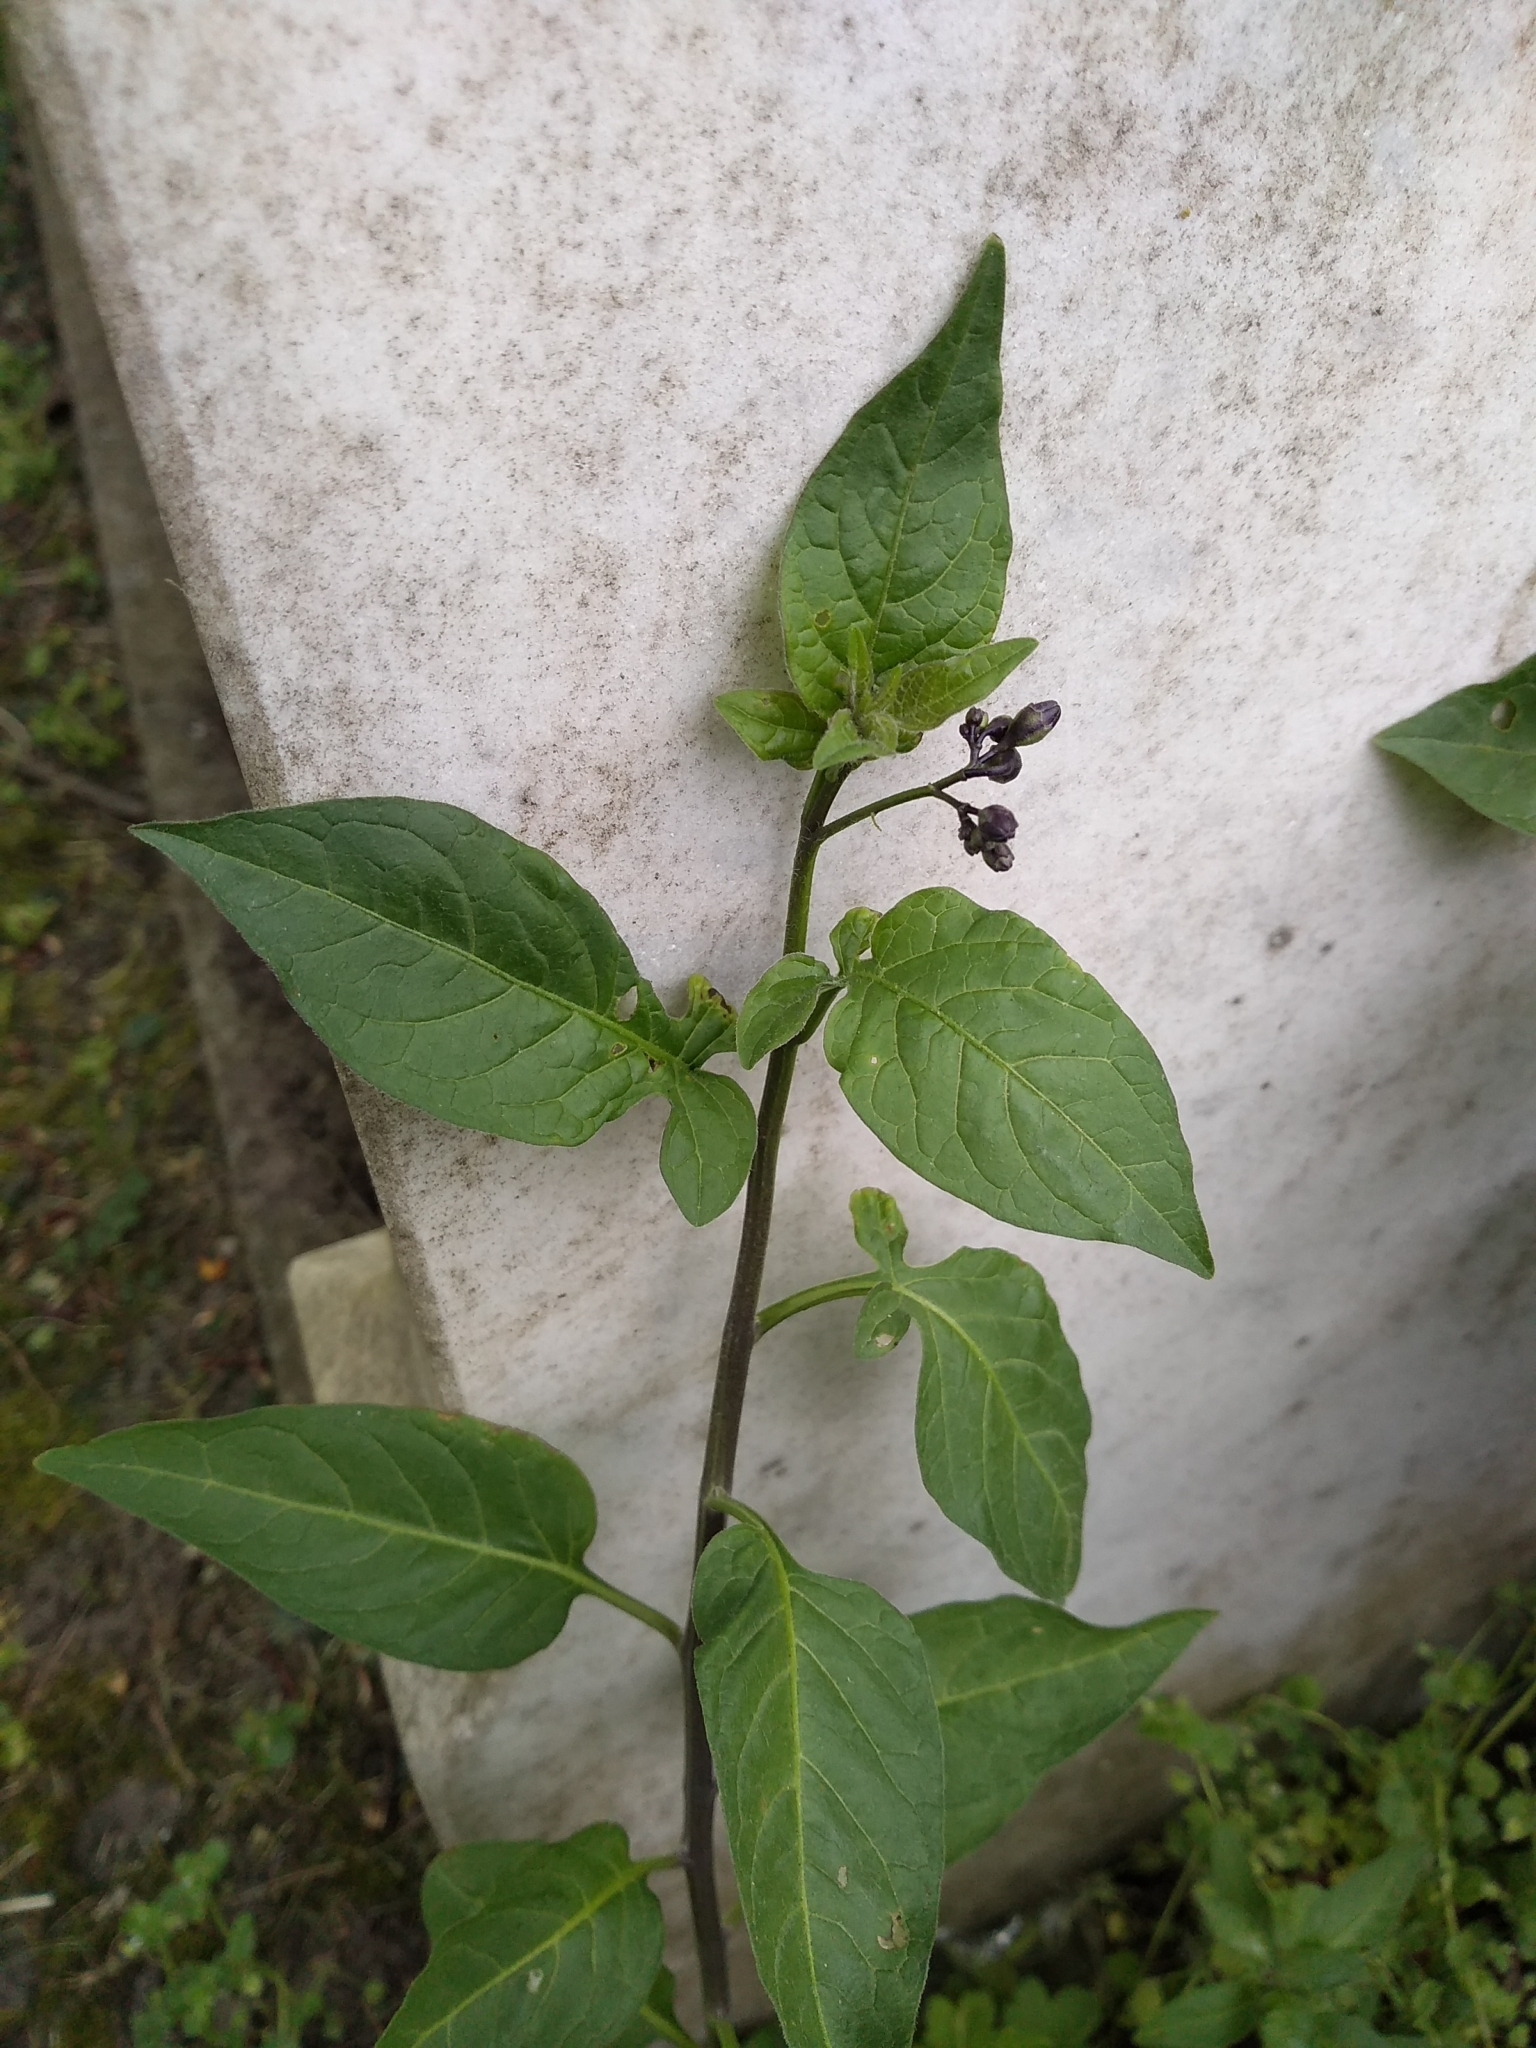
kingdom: Plantae
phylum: Tracheophyta
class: Magnoliopsida
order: Solanales
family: Solanaceae
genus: Solanum
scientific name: Solanum dulcamara
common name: Climbing nightshade
